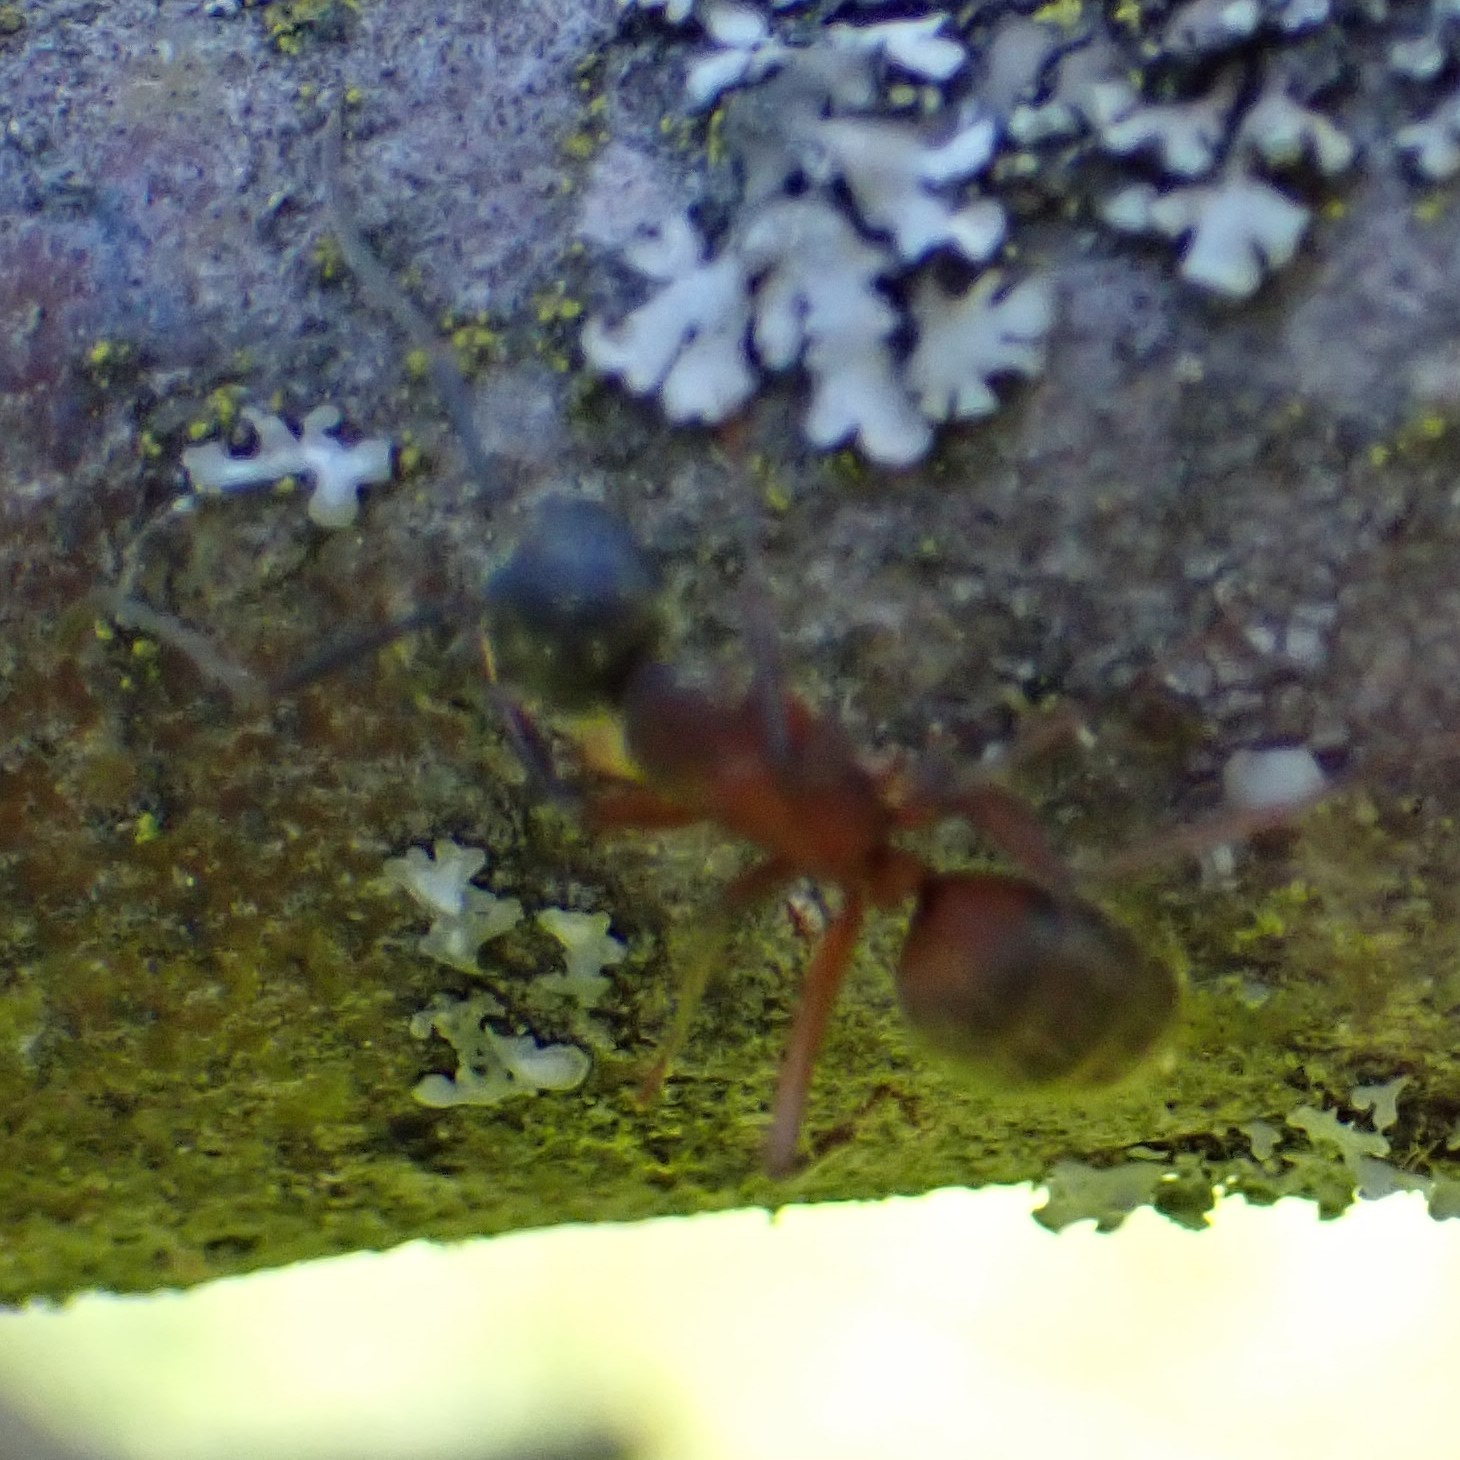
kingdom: Animalia
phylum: Arthropoda
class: Insecta
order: Hymenoptera
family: Formicidae
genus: Camponotus
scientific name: Camponotus chromaiodes
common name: Red carpenter ant
